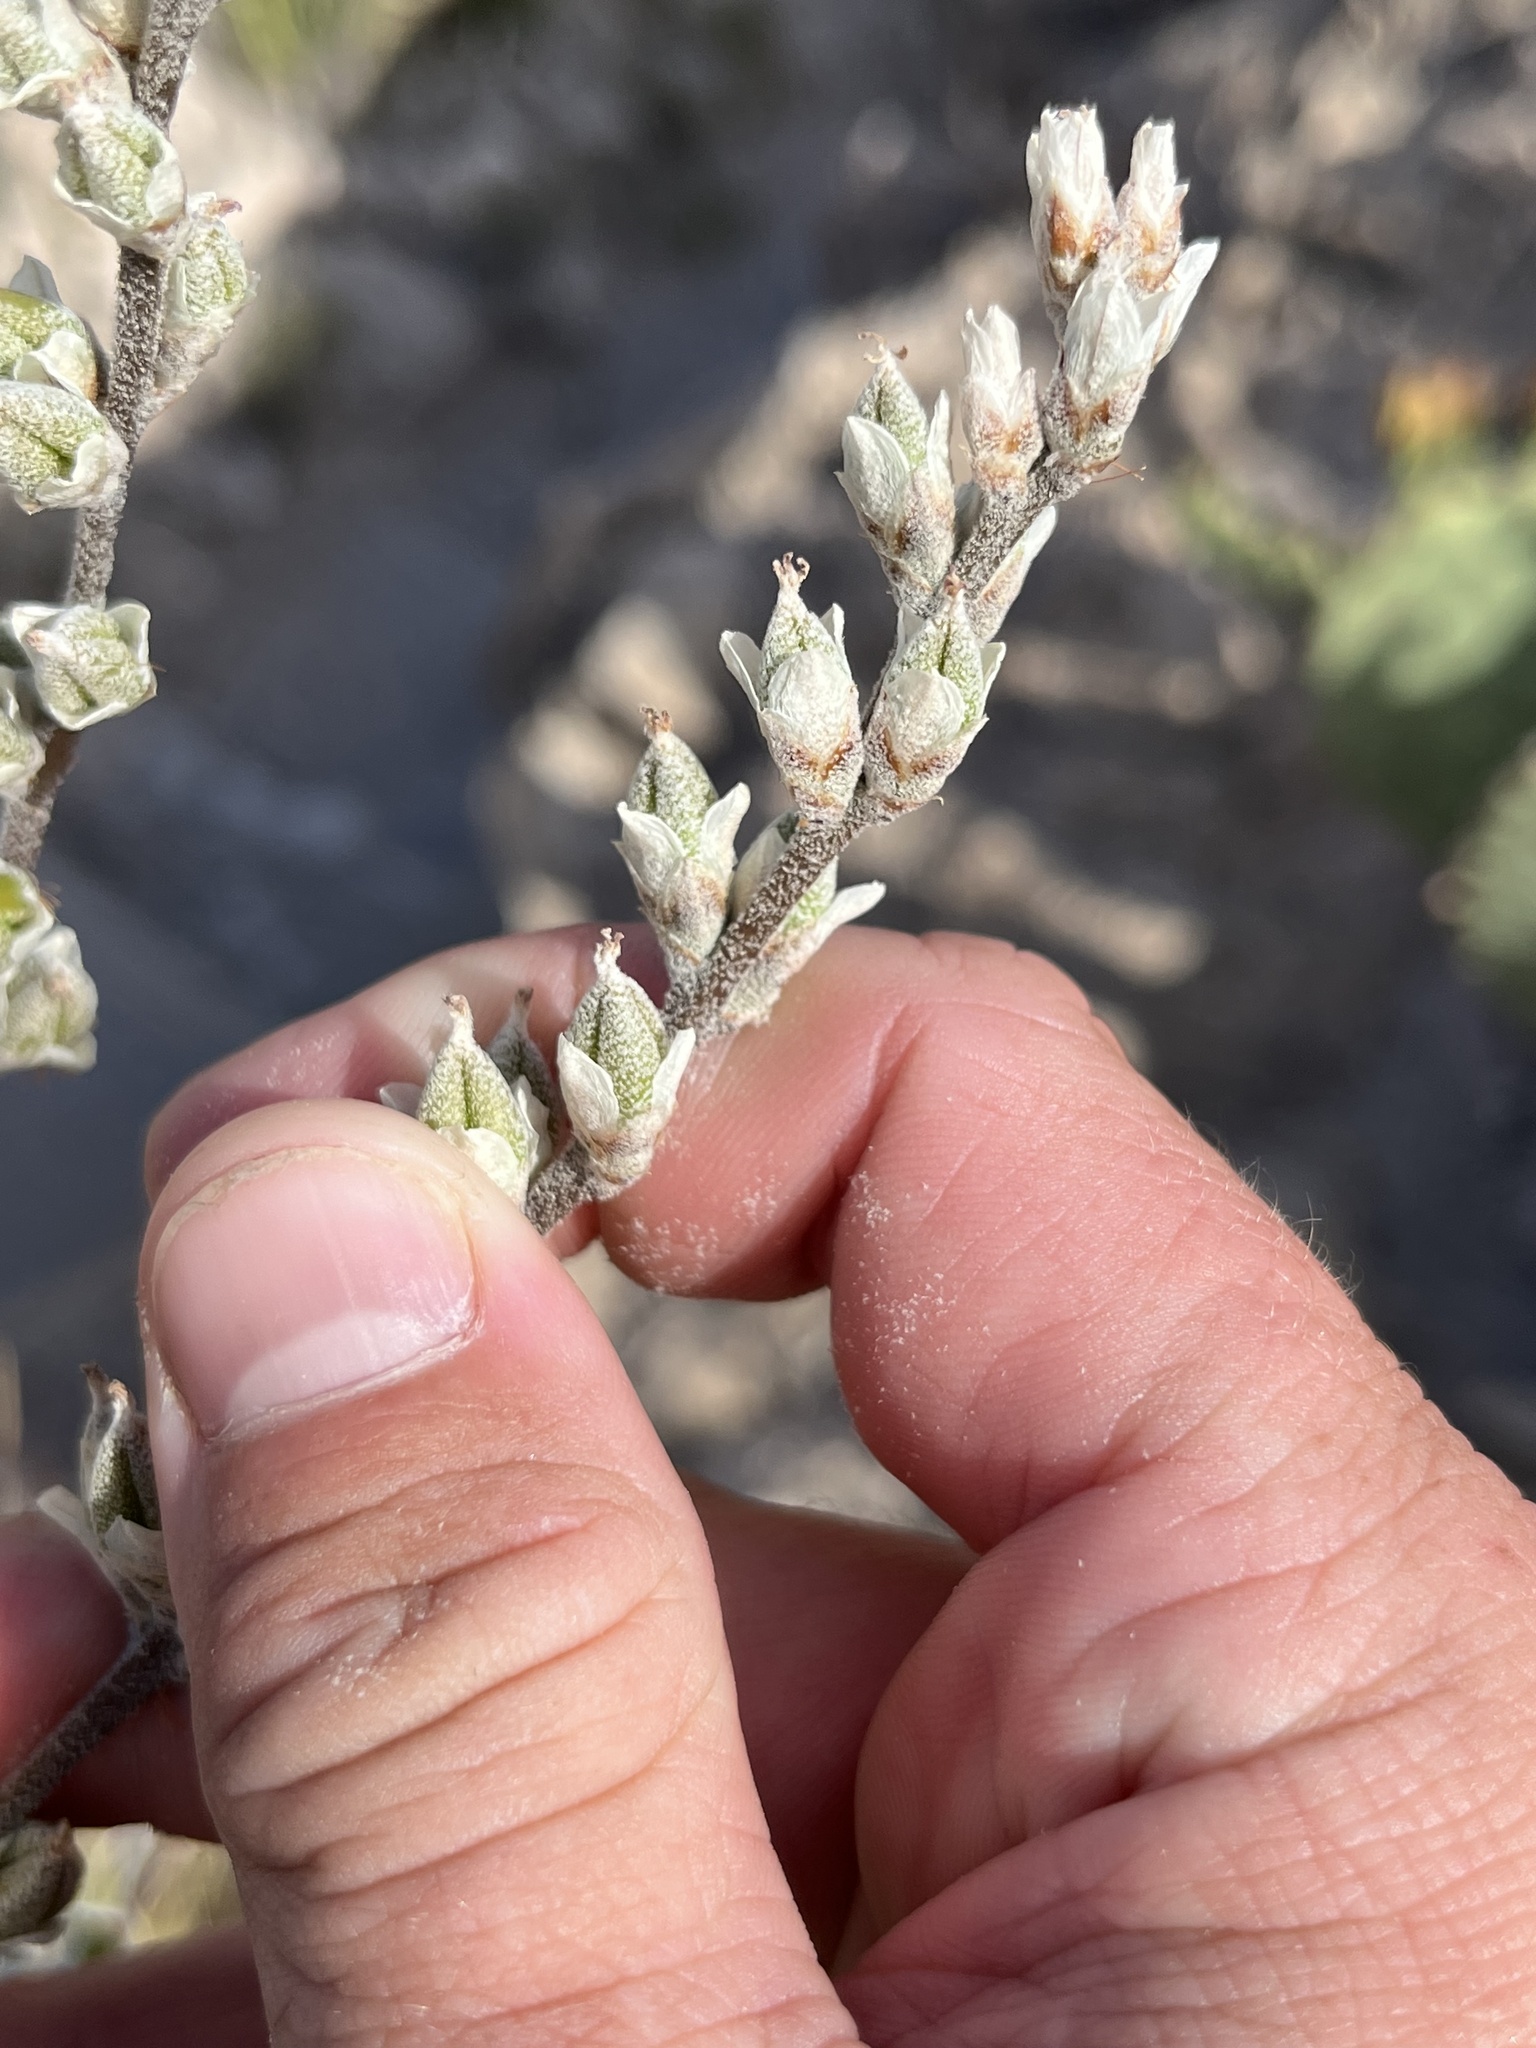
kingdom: Plantae
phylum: Tracheophyta
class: Liliopsida
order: Poales
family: Bromeliaceae
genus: Hechtia
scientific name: Hechtia texensis
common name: False agave
